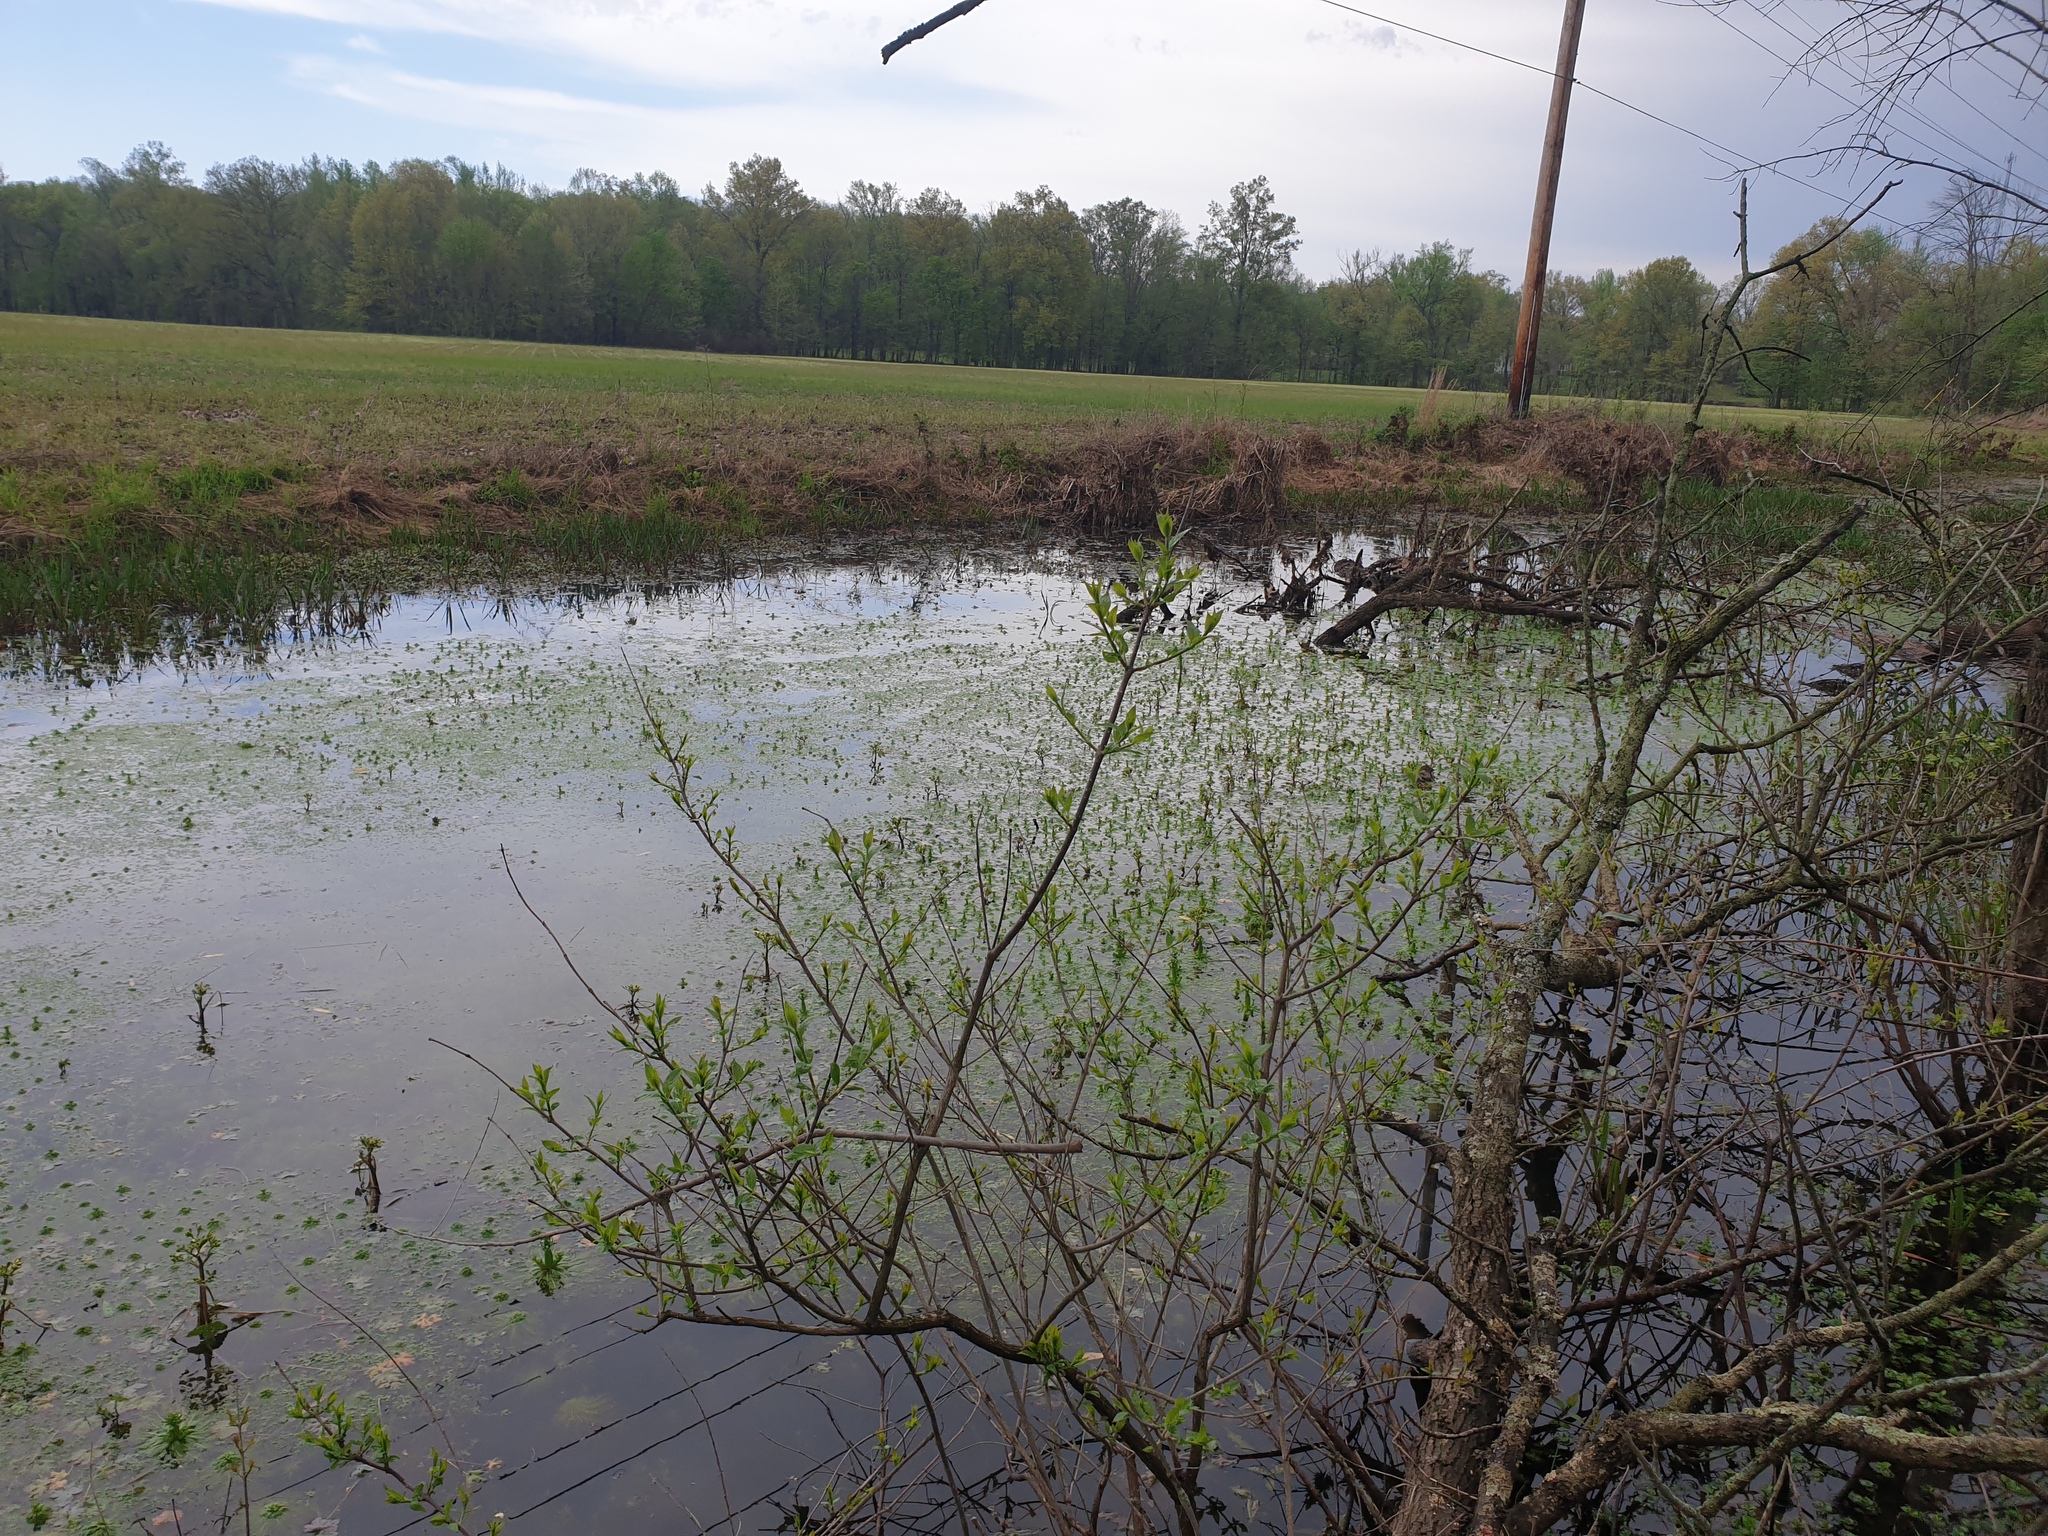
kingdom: Plantae
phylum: Tracheophyta
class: Magnoliopsida
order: Ericales
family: Primulaceae
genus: Hottonia
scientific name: Hottonia inflata
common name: American featherfoil
